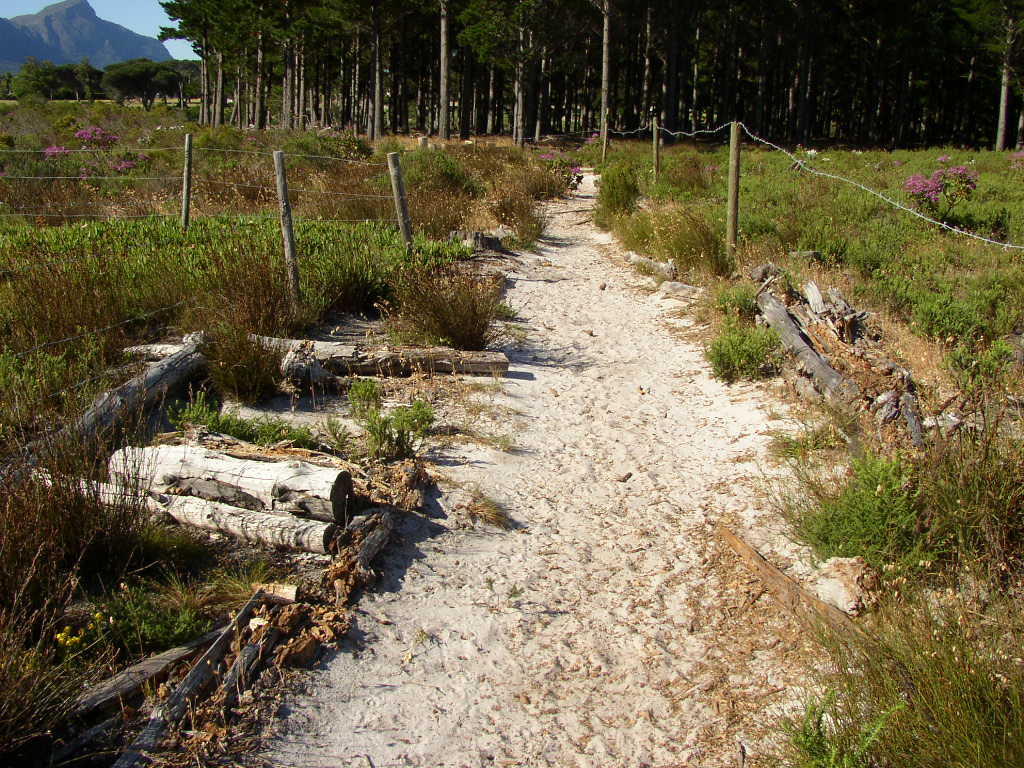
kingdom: Plantae
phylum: Tracheophyta
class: Liliopsida
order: Poales
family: Restionaceae
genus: Restio
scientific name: Restio bifurcus
